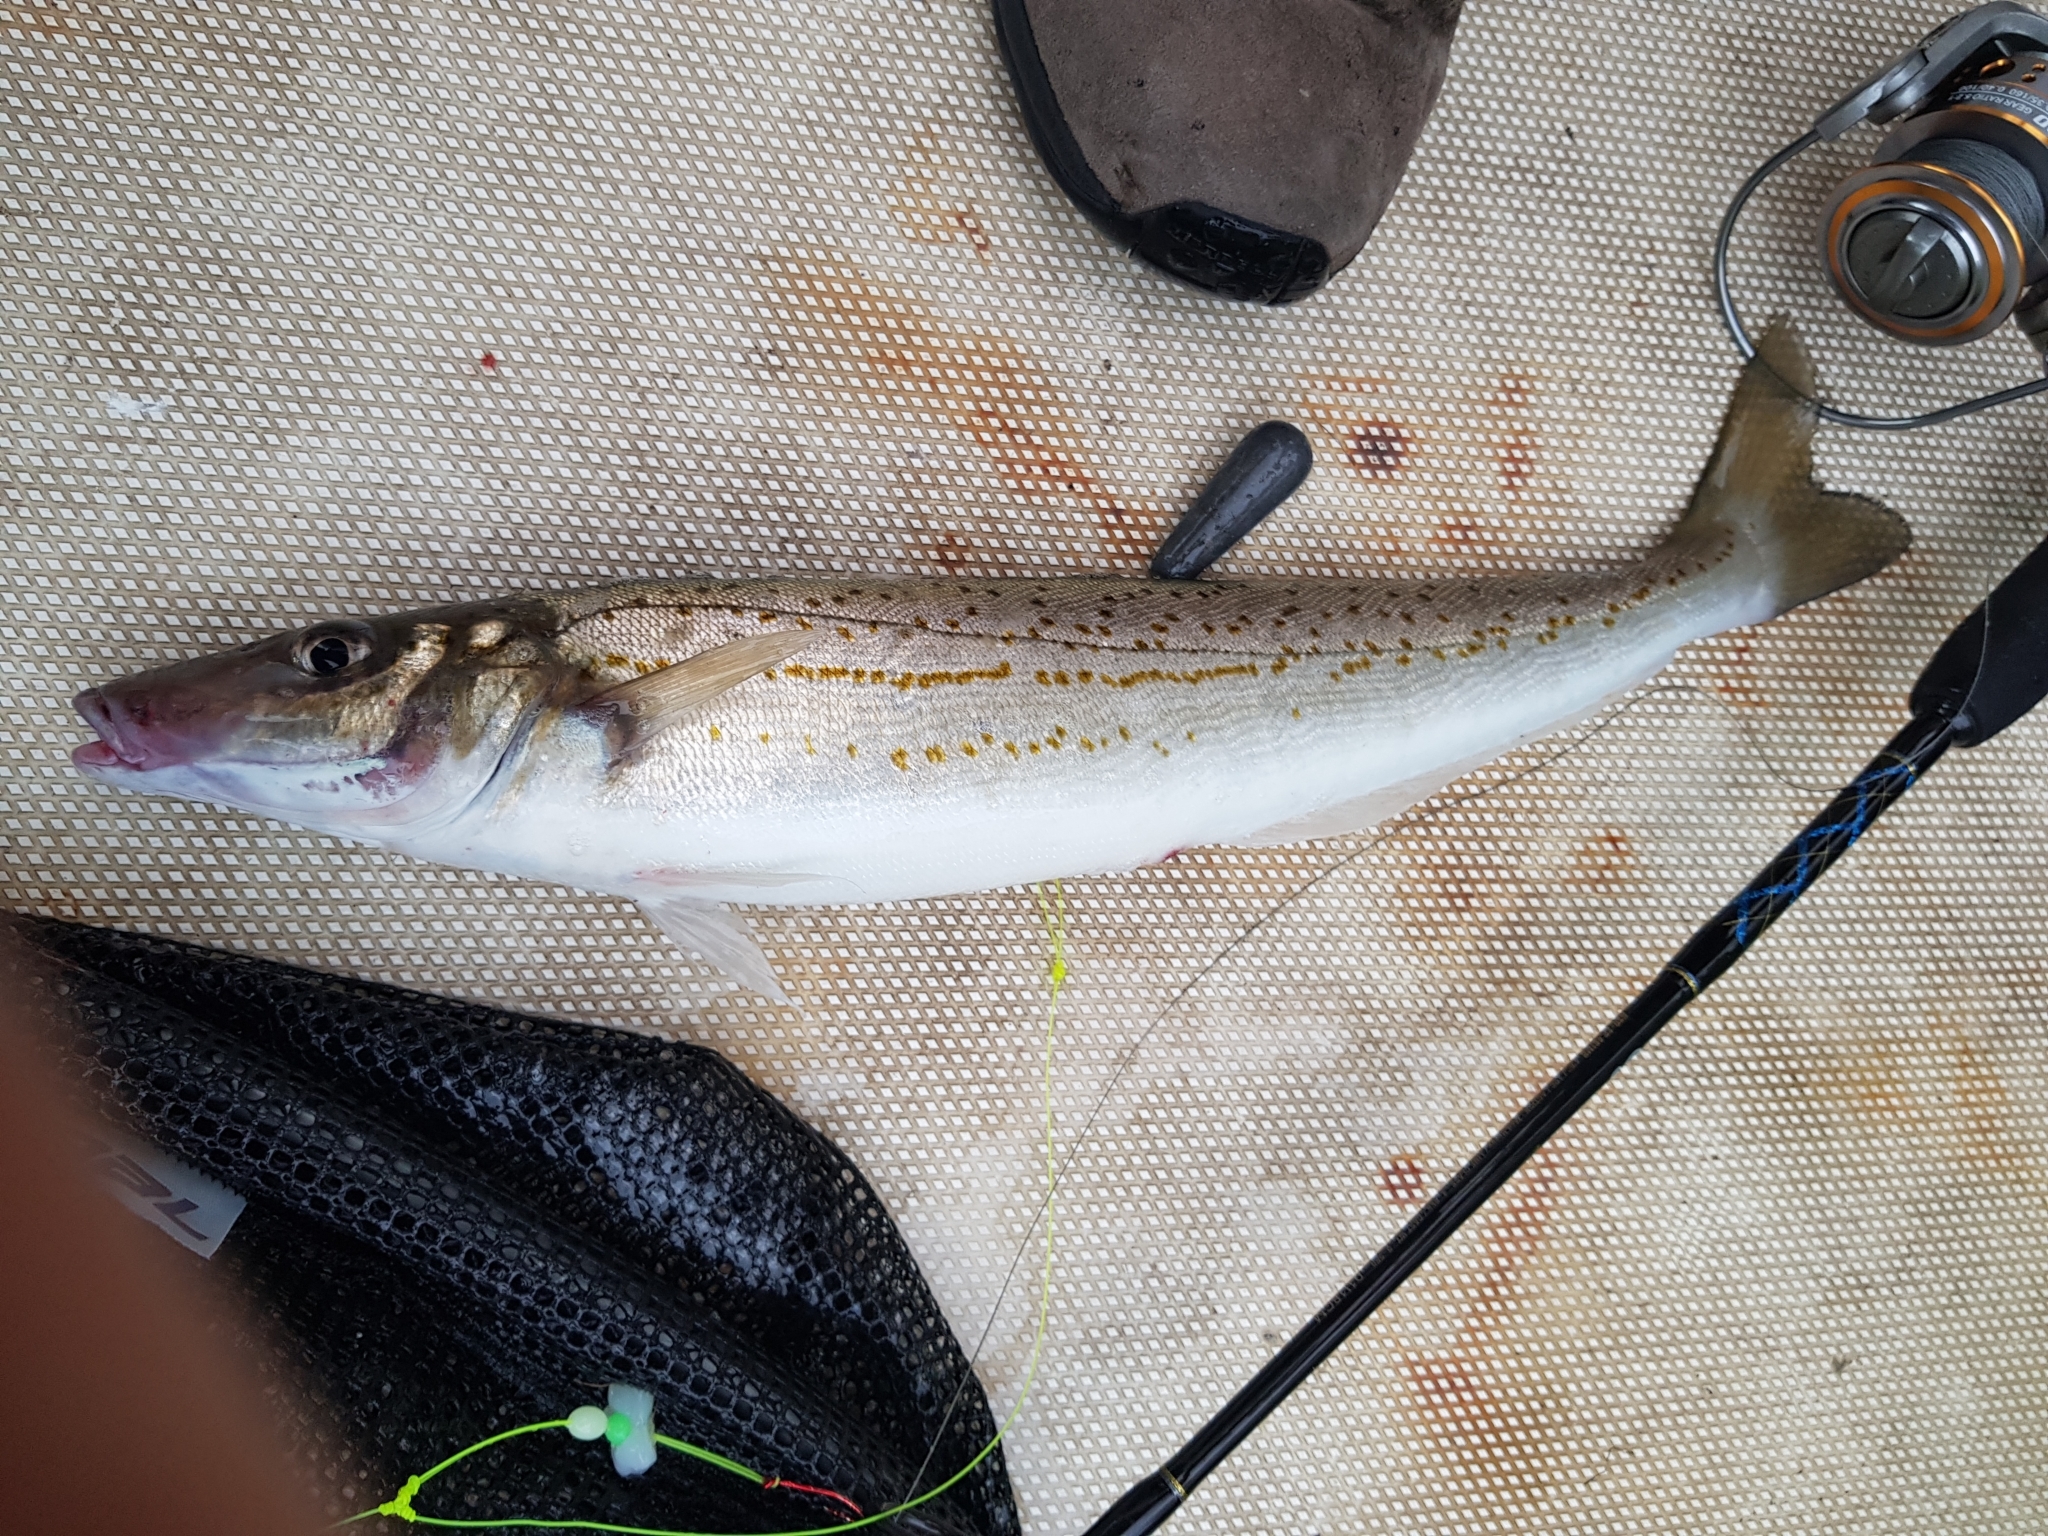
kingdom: Animalia
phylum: Chordata
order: Perciformes
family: Sillaginidae
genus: Sillaginodes
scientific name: Sillaginodes punctatus
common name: King george whiting
